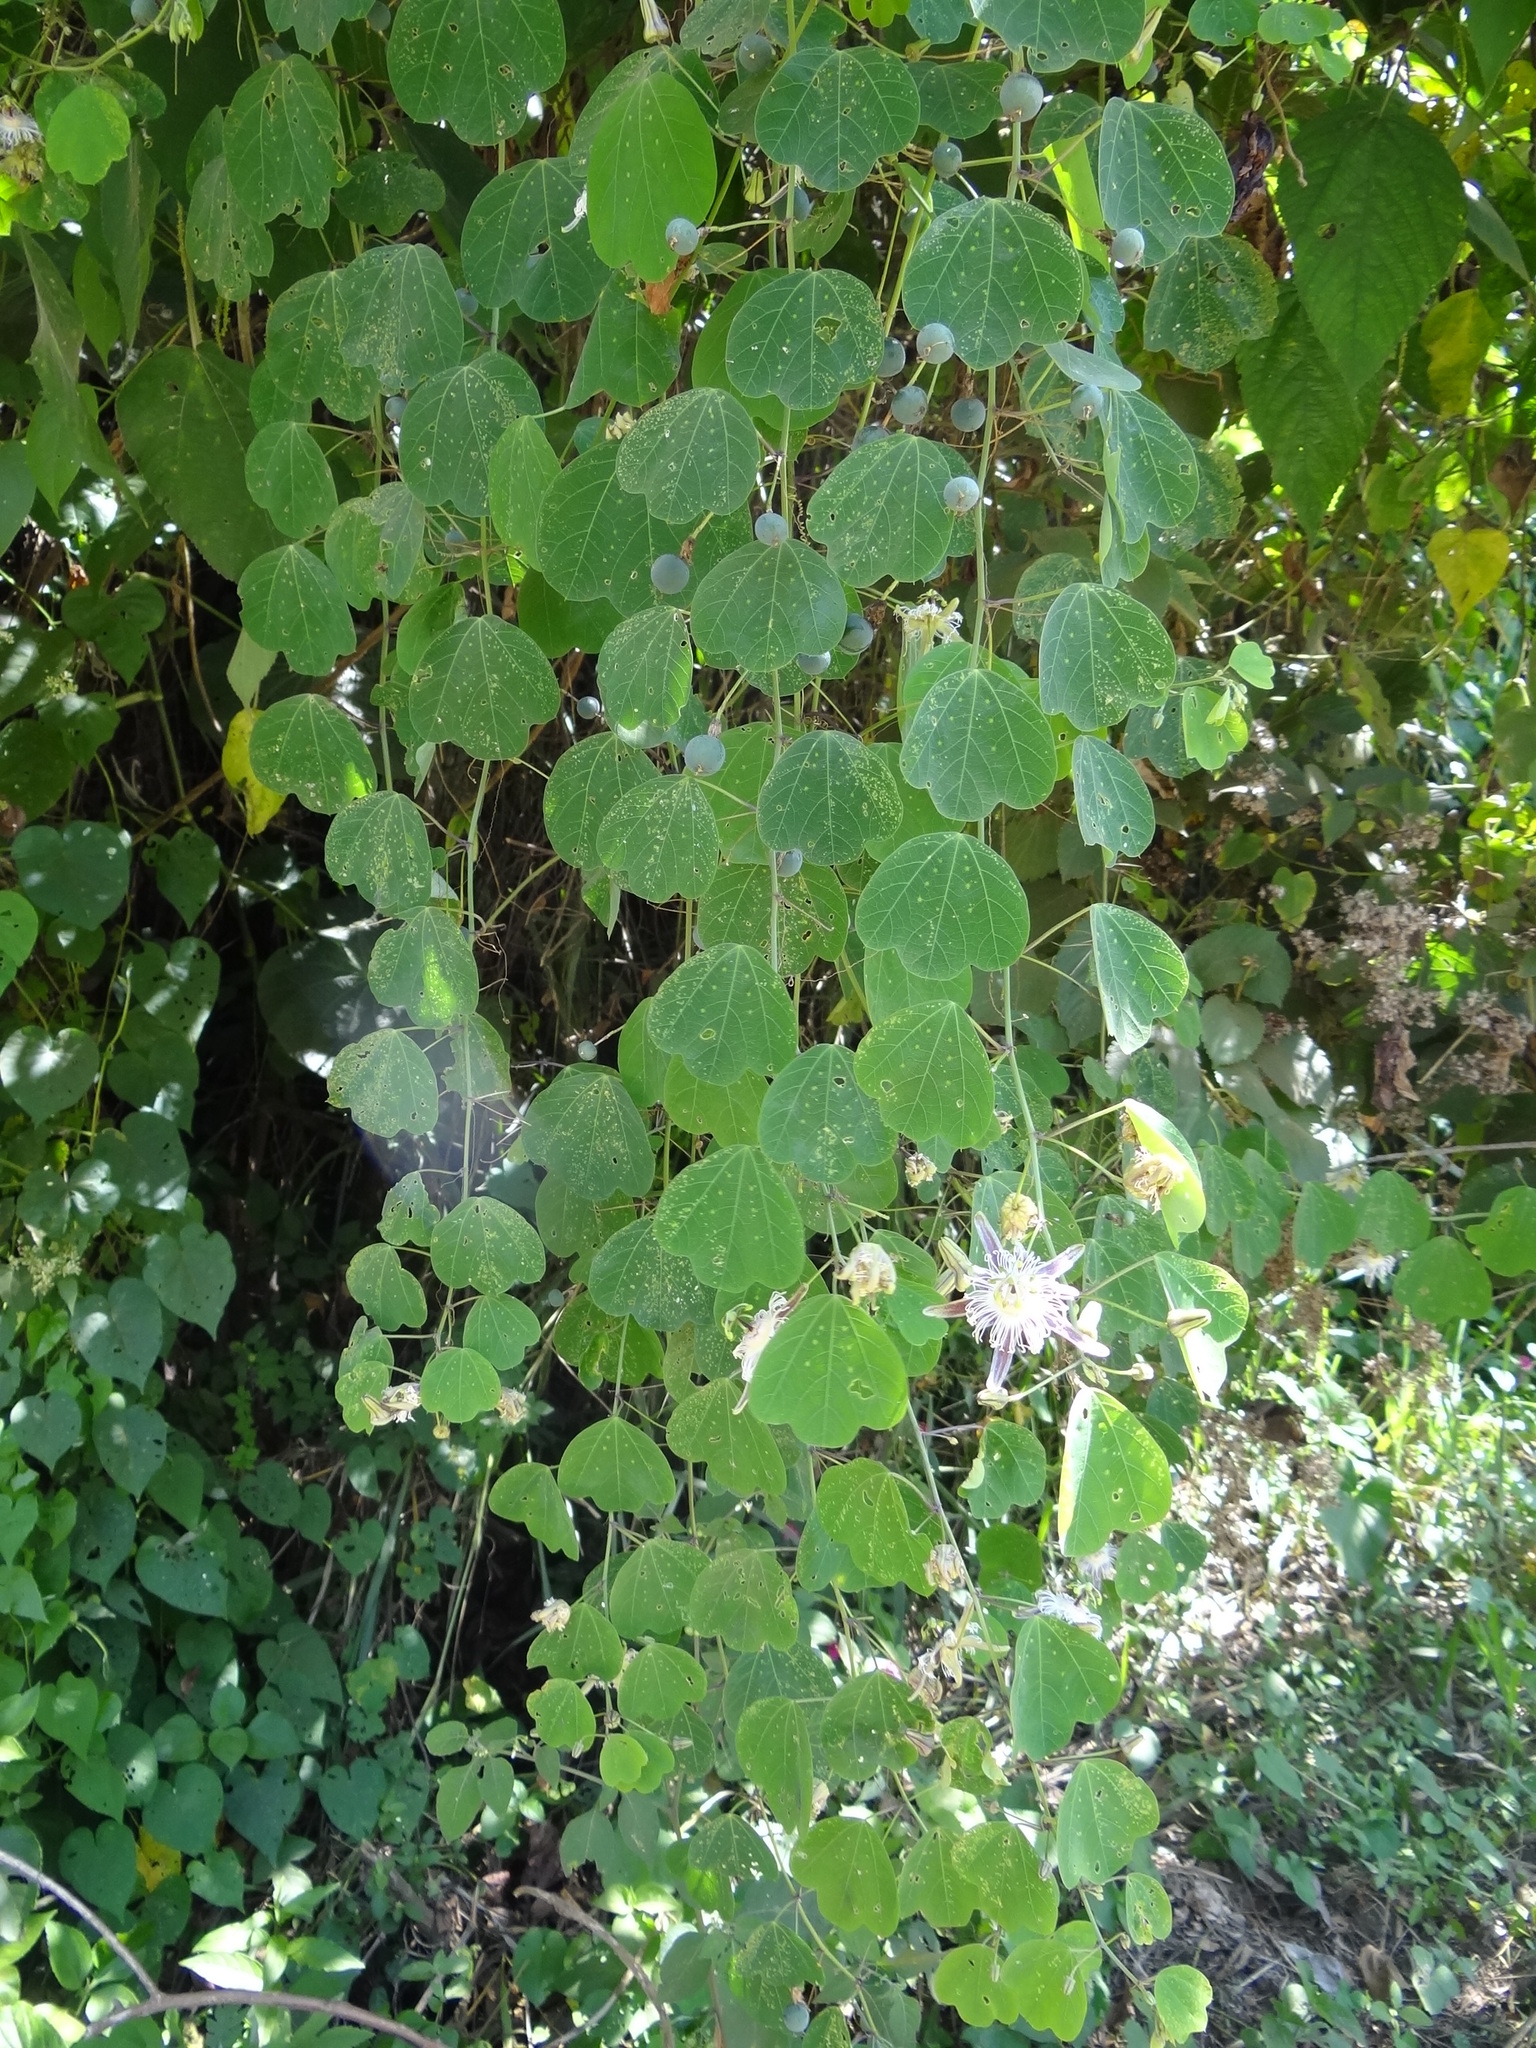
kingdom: Plantae
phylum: Tracheophyta
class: Magnoliopsida
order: Malpighiales
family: Passifloraceae
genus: Passiflora
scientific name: Passiflora quimbayensis
